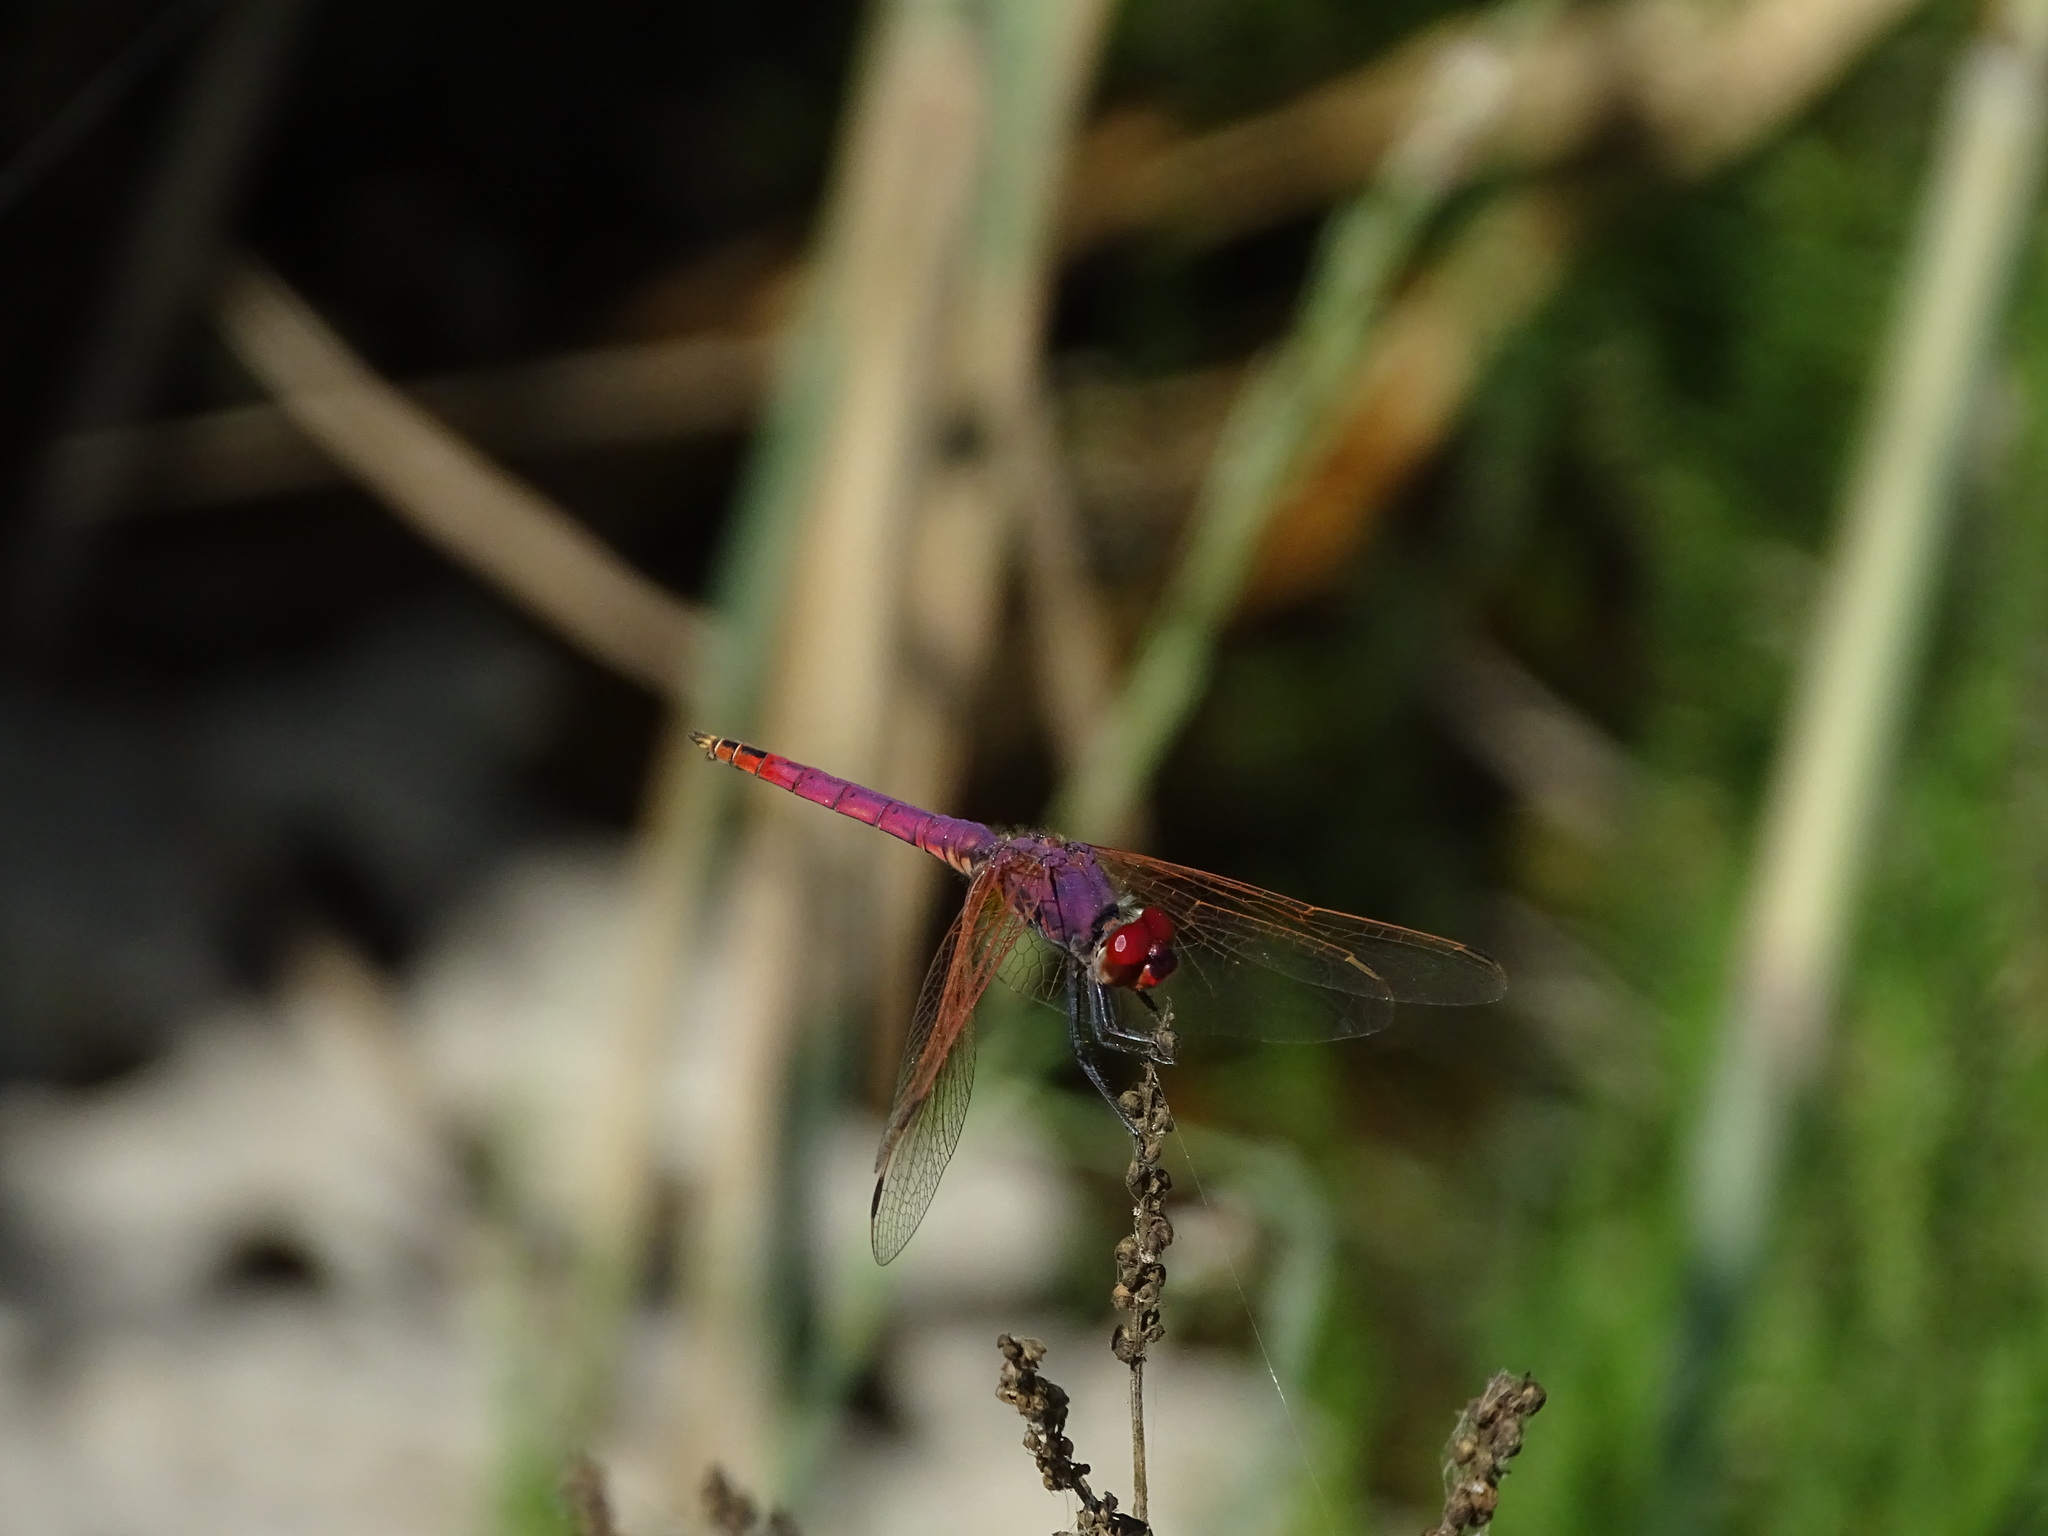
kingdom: Animalia
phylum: Arthropoda
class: Insecta
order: Odonata
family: Libellulidae
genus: Trithemis
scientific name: Trithemis annulata
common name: Violet dropwing
